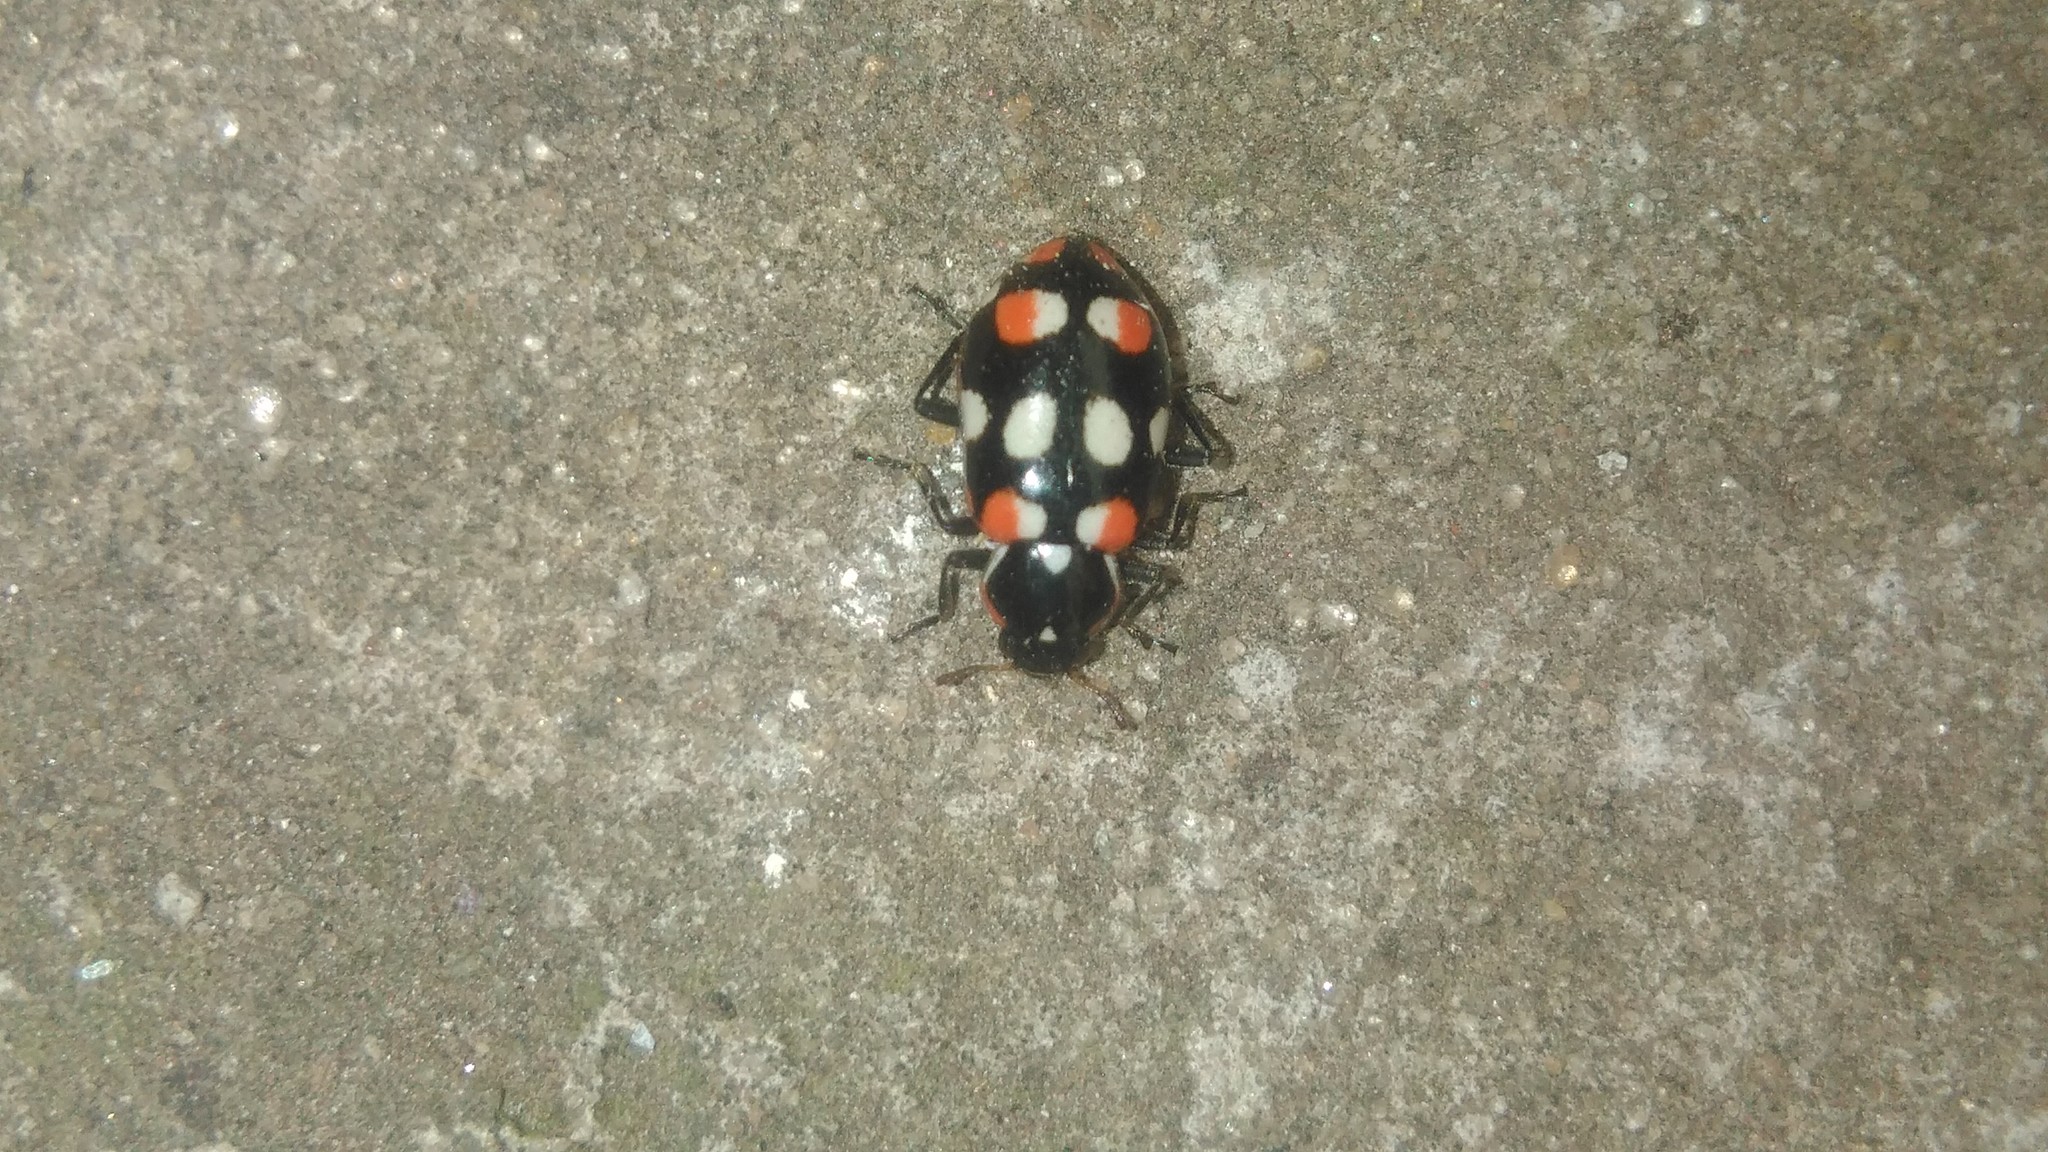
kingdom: Animalia
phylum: Arthropoda
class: Insecta
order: Coleoptera
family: Coccinellidae
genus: Eriopis
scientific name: Eriopis connexa
